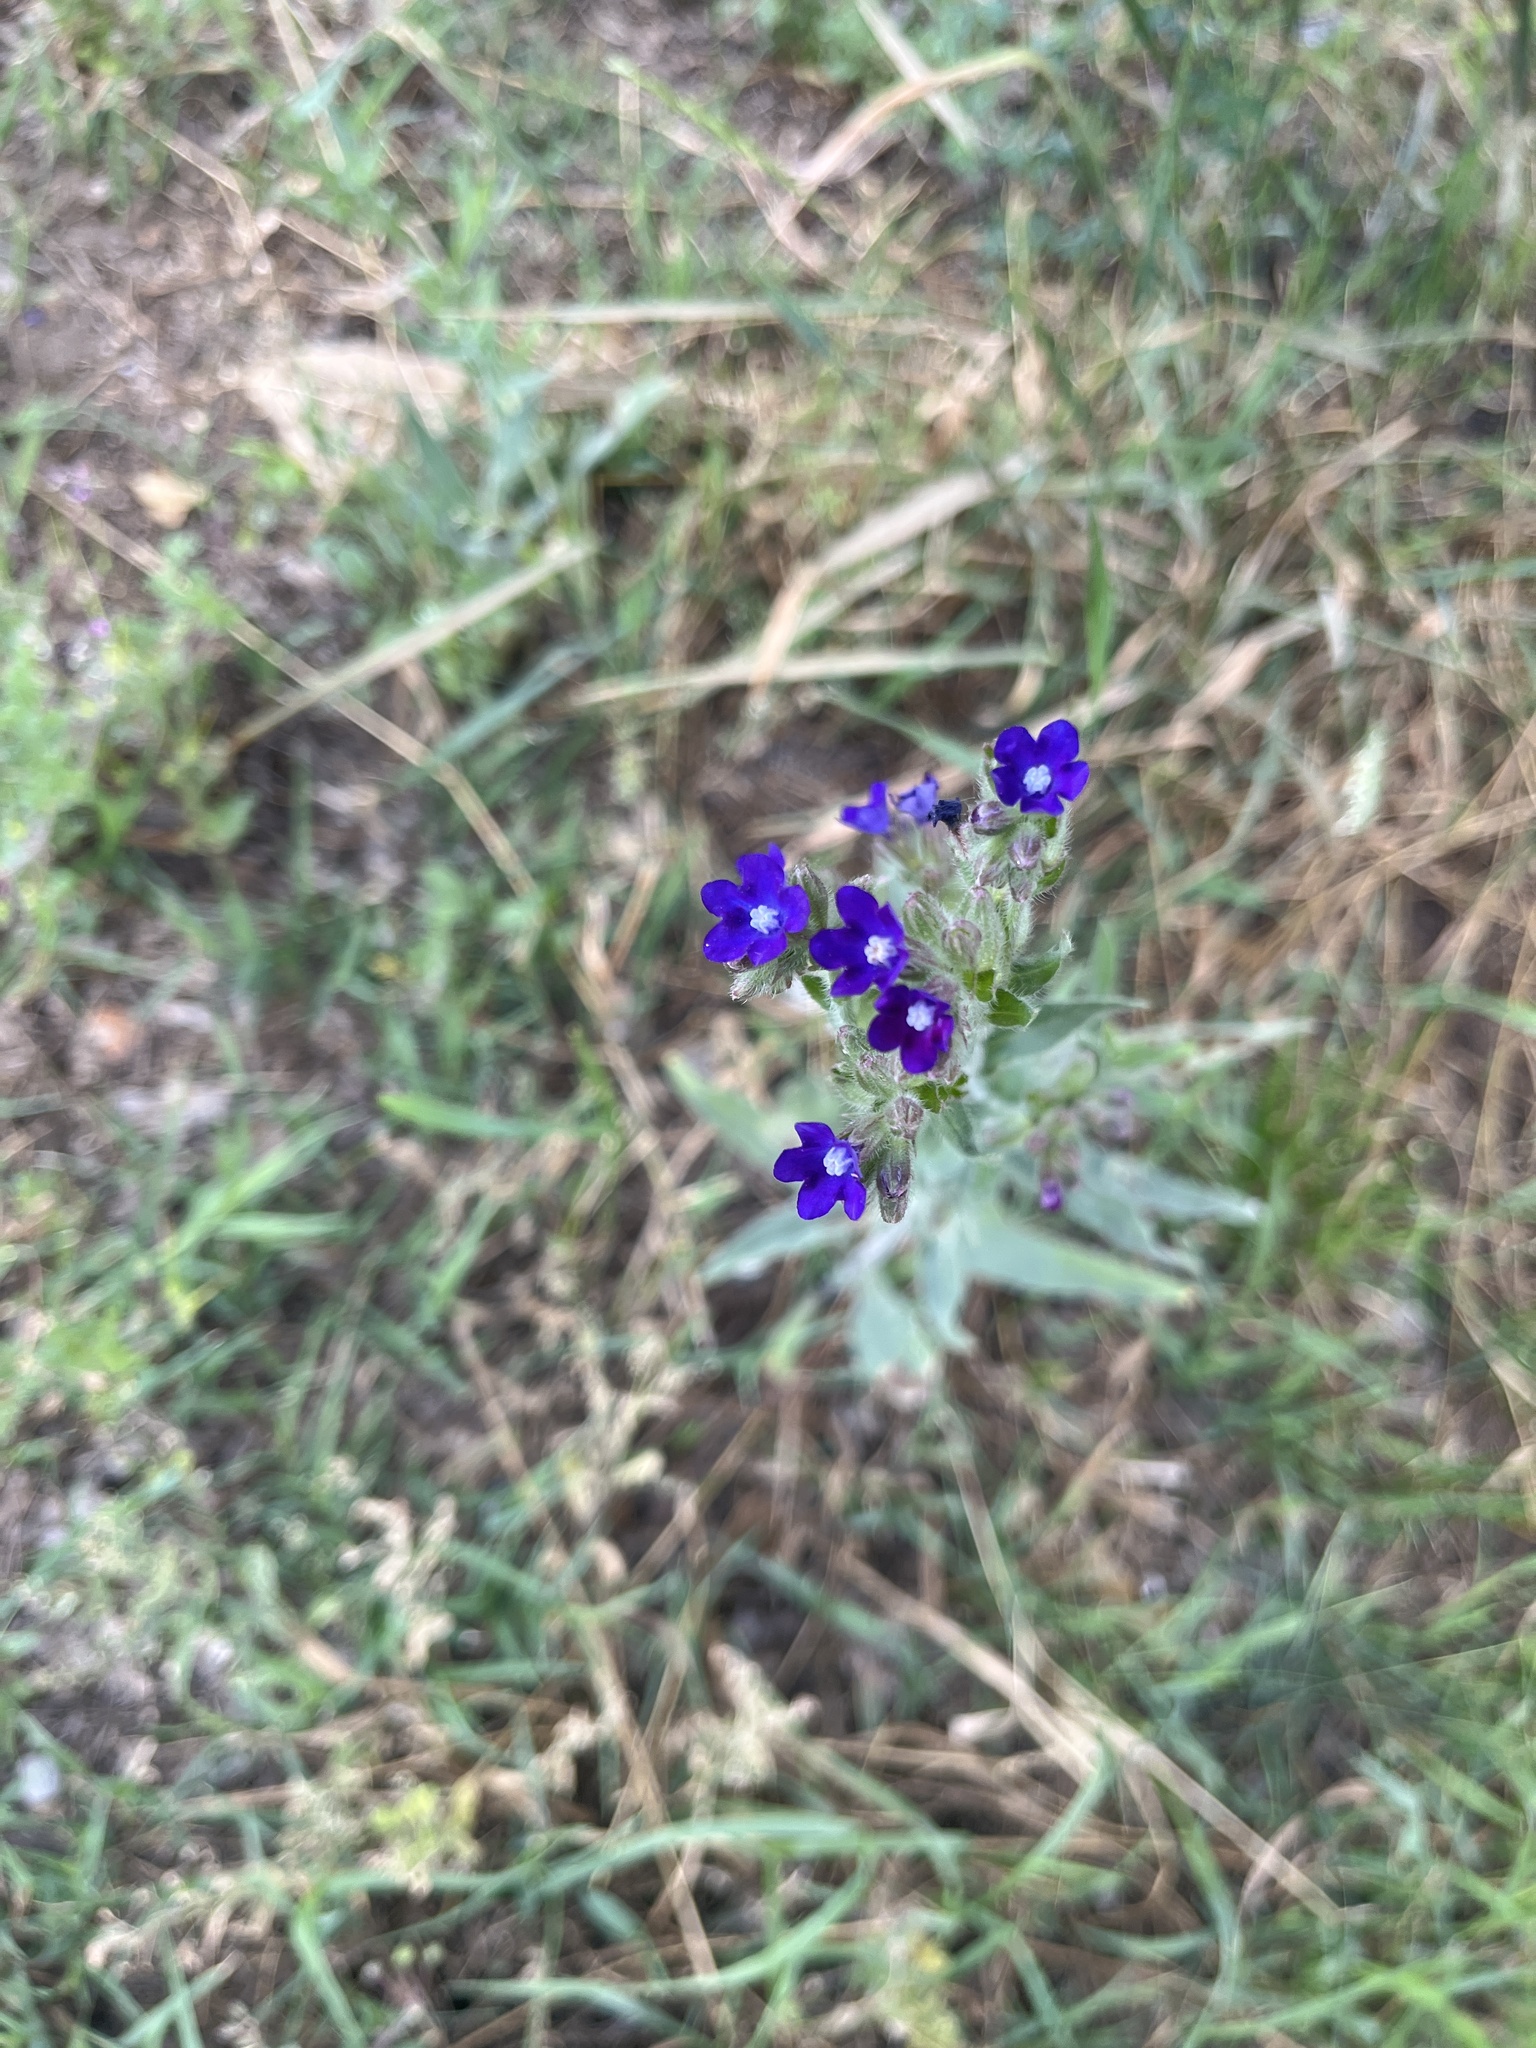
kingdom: Plantae
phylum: Tracheophyta
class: Magnoliopsida
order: Boraginales
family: Boraginaceae
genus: Anchusa
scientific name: Anchusa officinalis
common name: Alkanet
